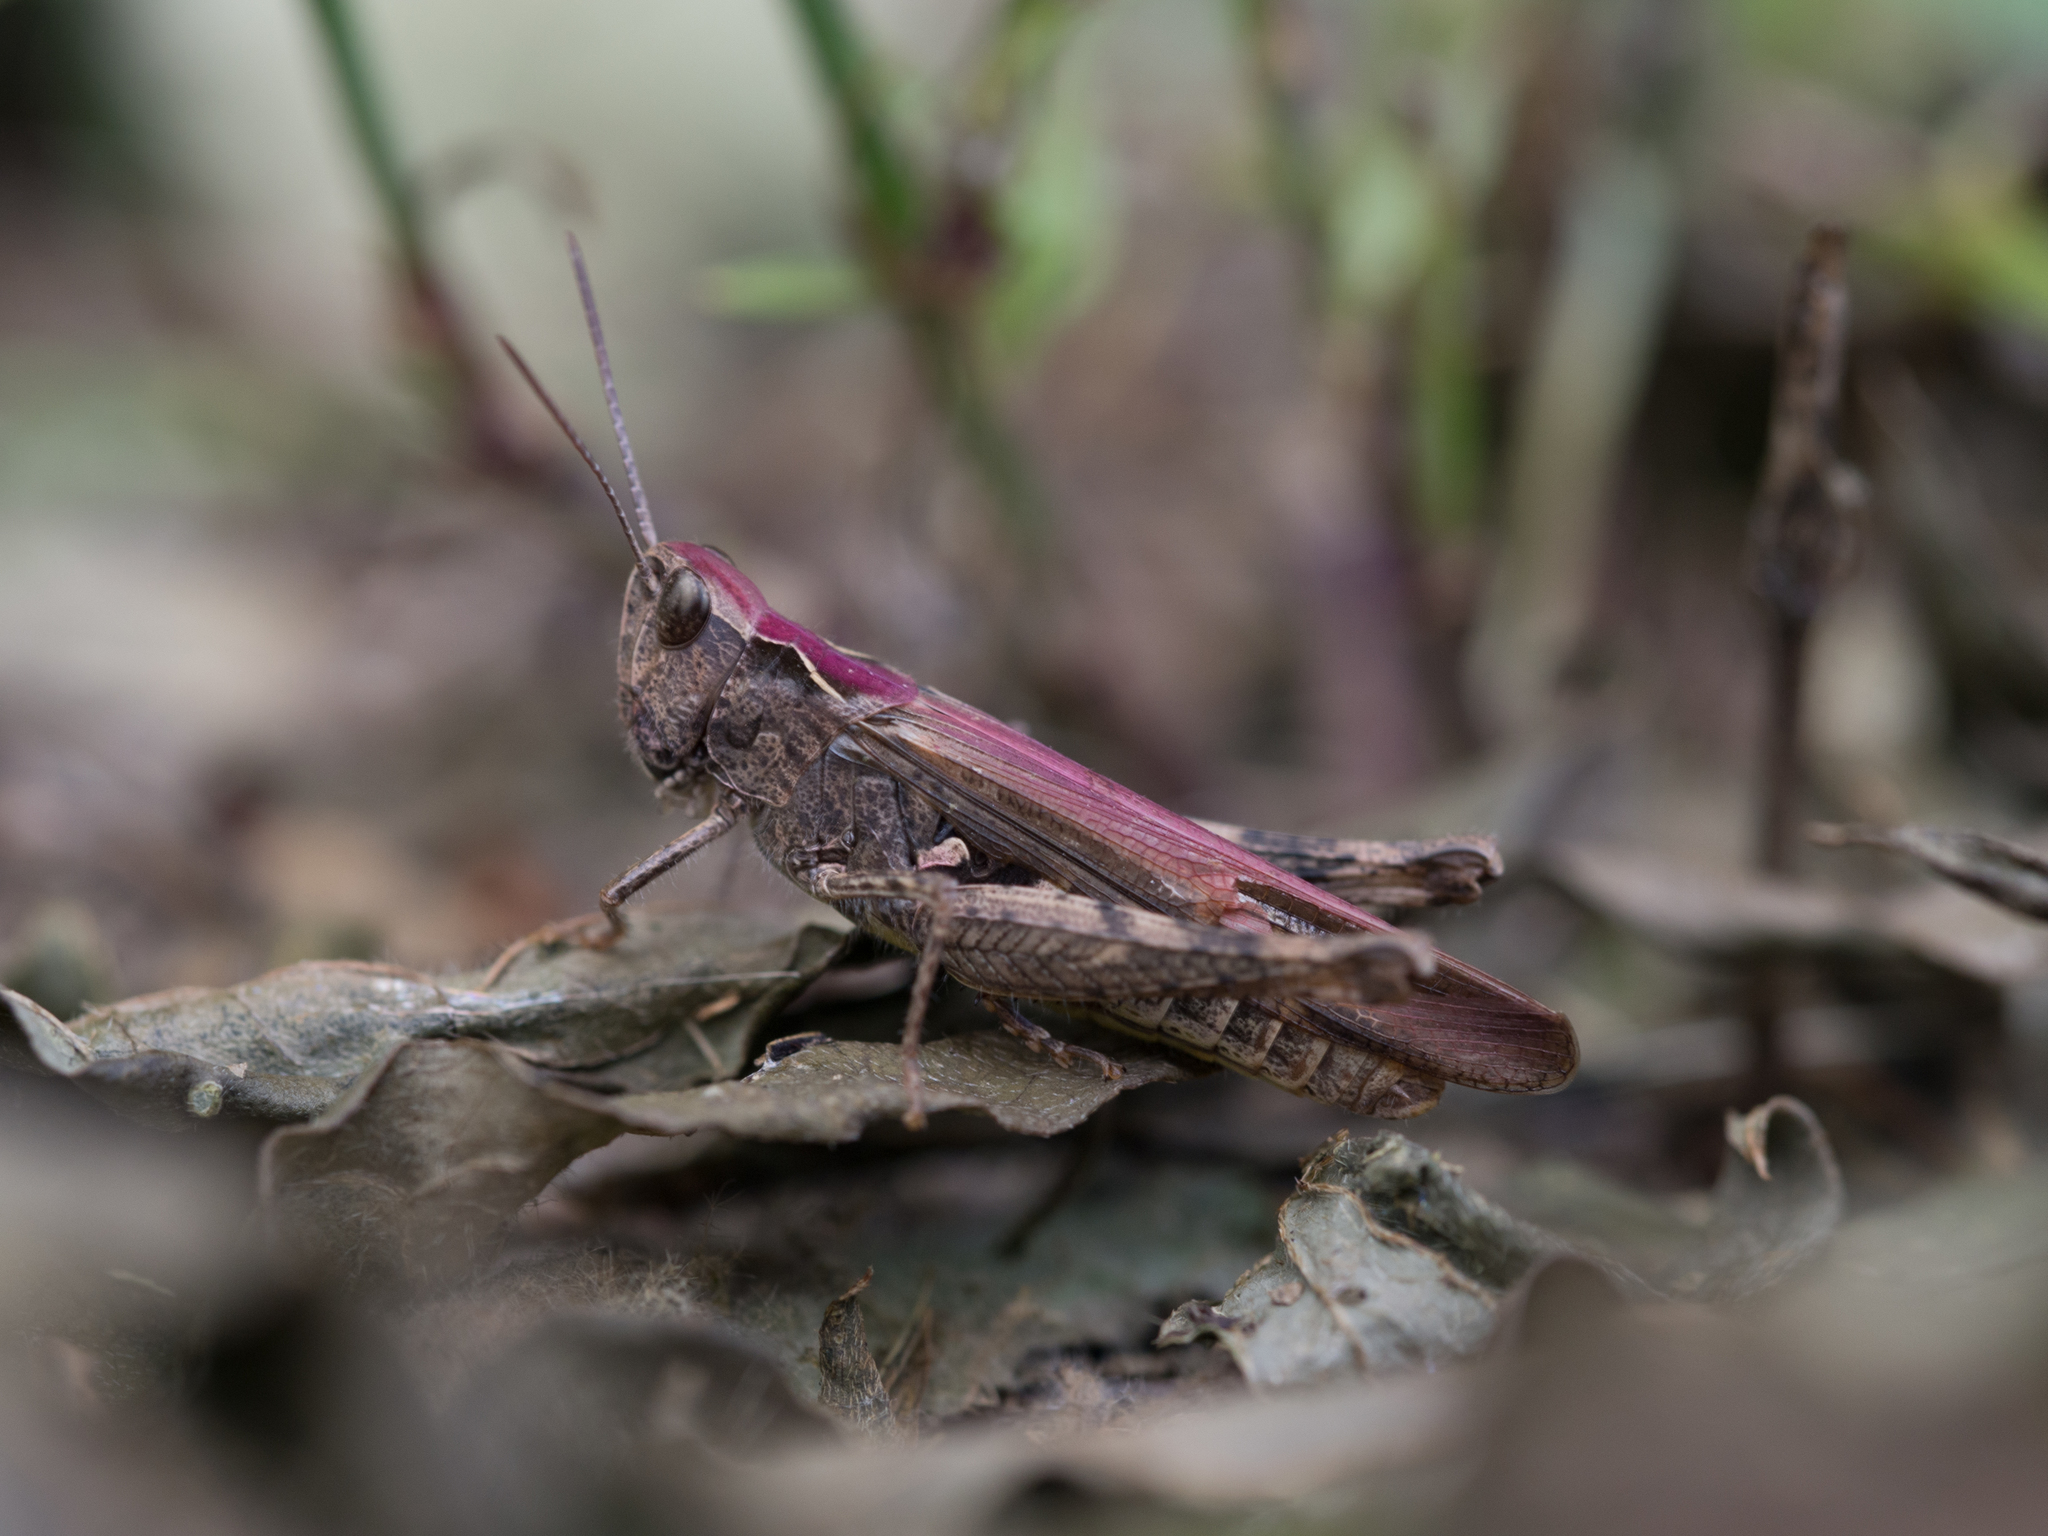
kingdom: Animalia
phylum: Arthropoda
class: Insecta
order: Orthoptera
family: Acrididae
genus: Glyptobothrus
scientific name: Glyptobothrus
